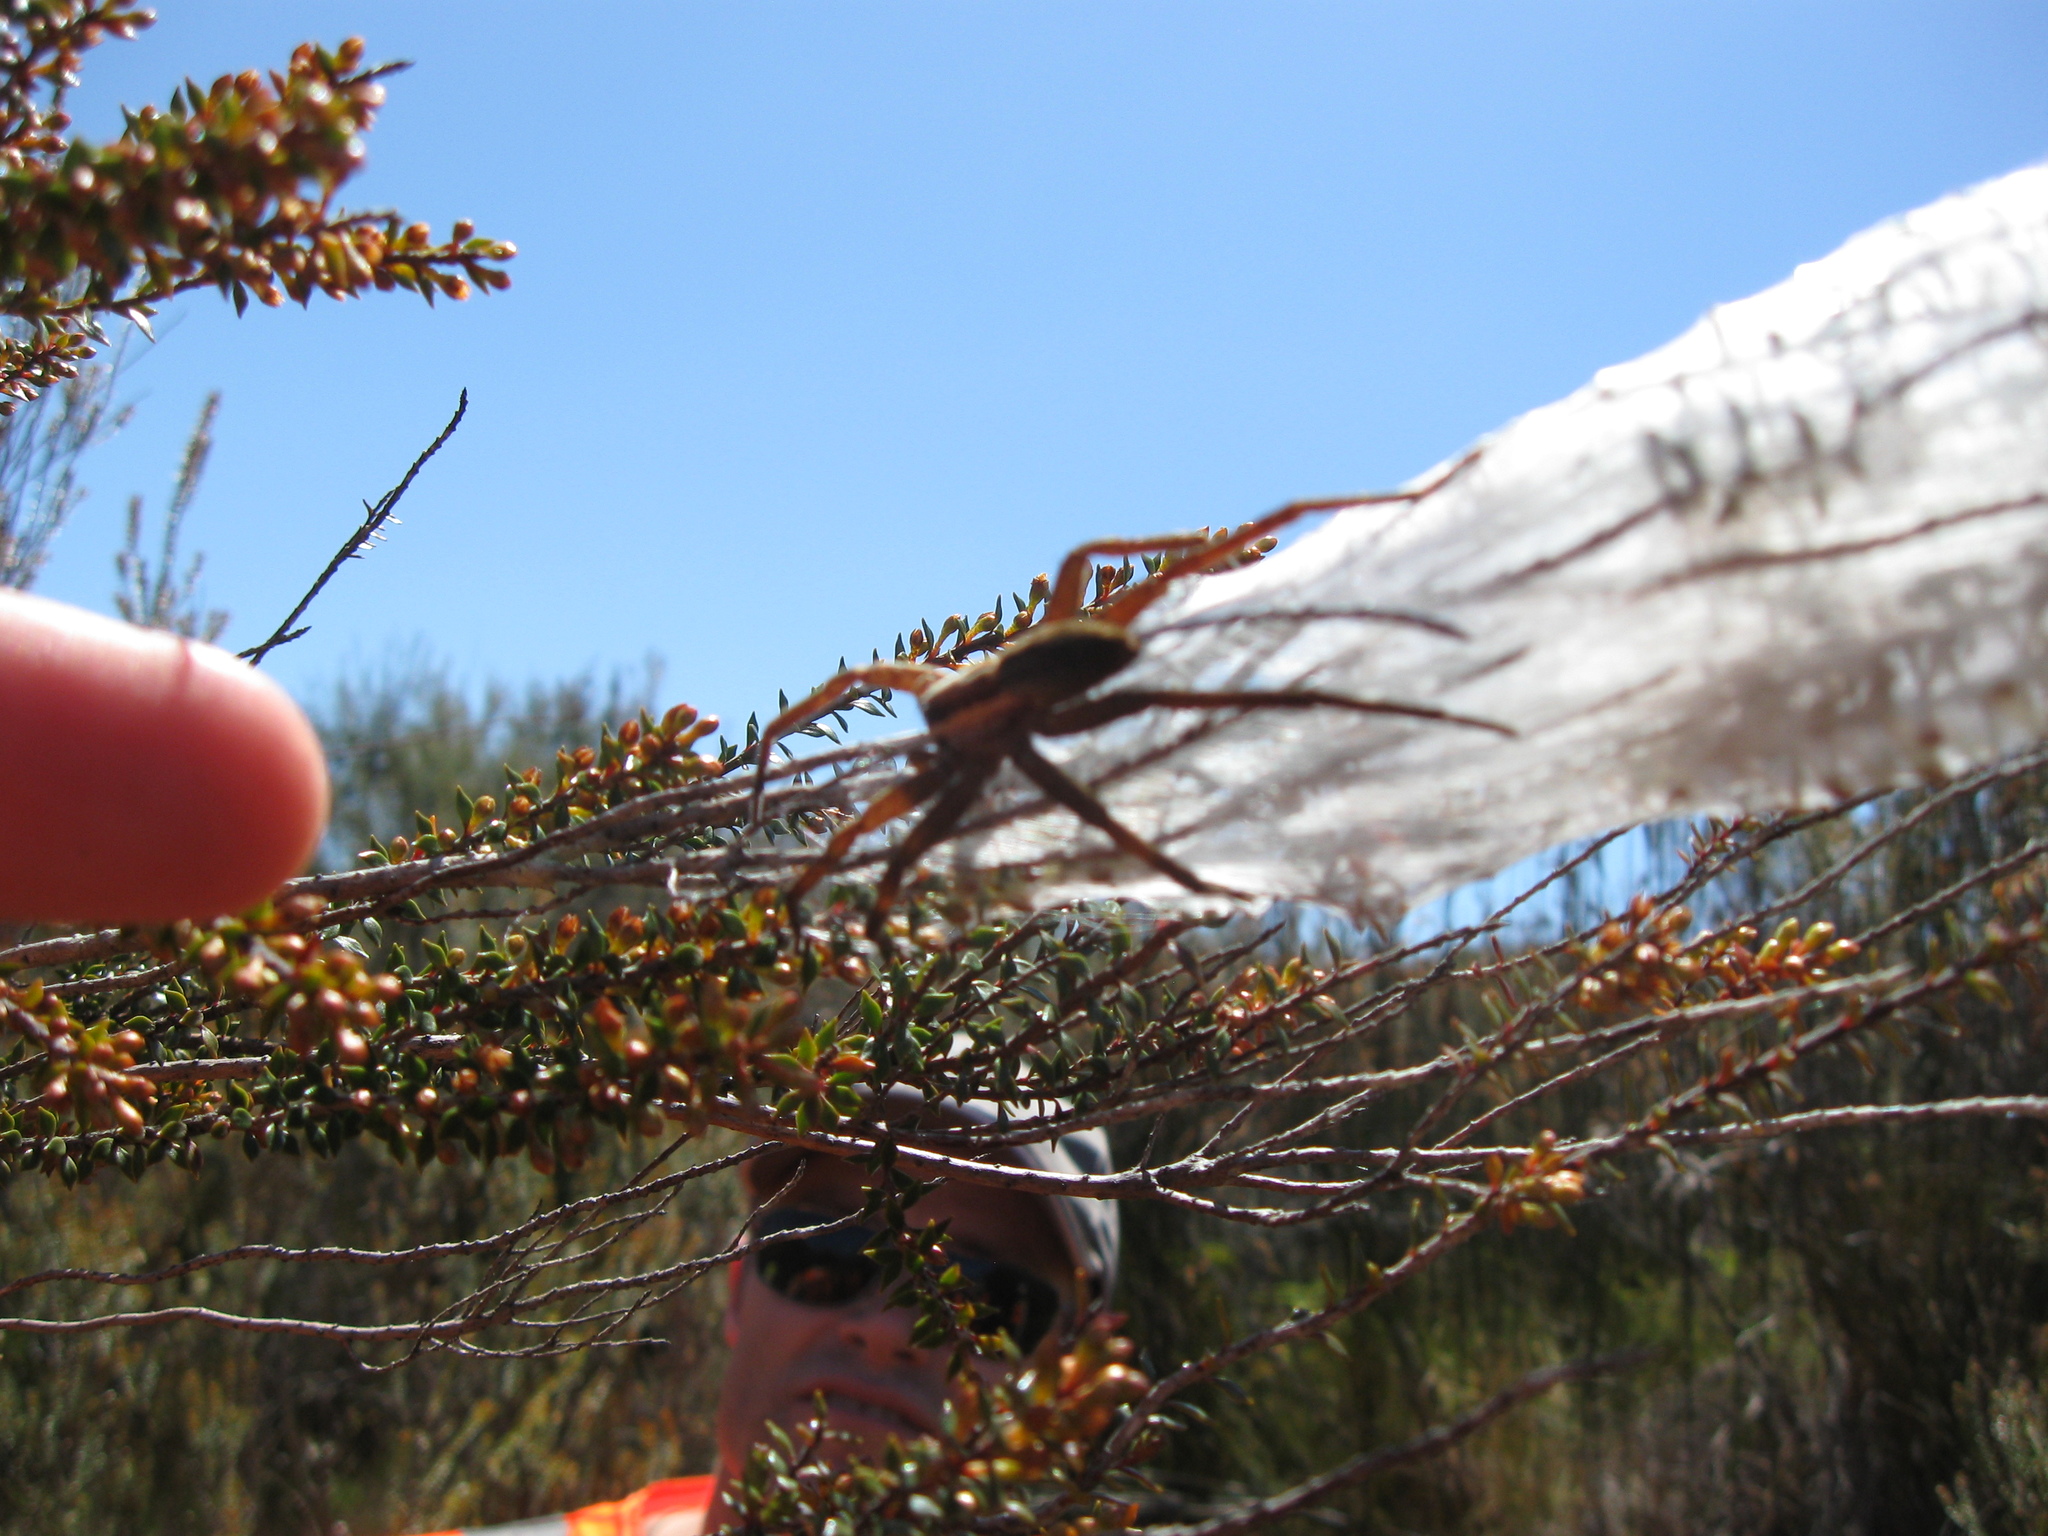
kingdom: Animalia
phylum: Arthropoda
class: Arachnida
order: Araneae
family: Pisauridae
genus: Dolomedes
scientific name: Dolomedes minor
